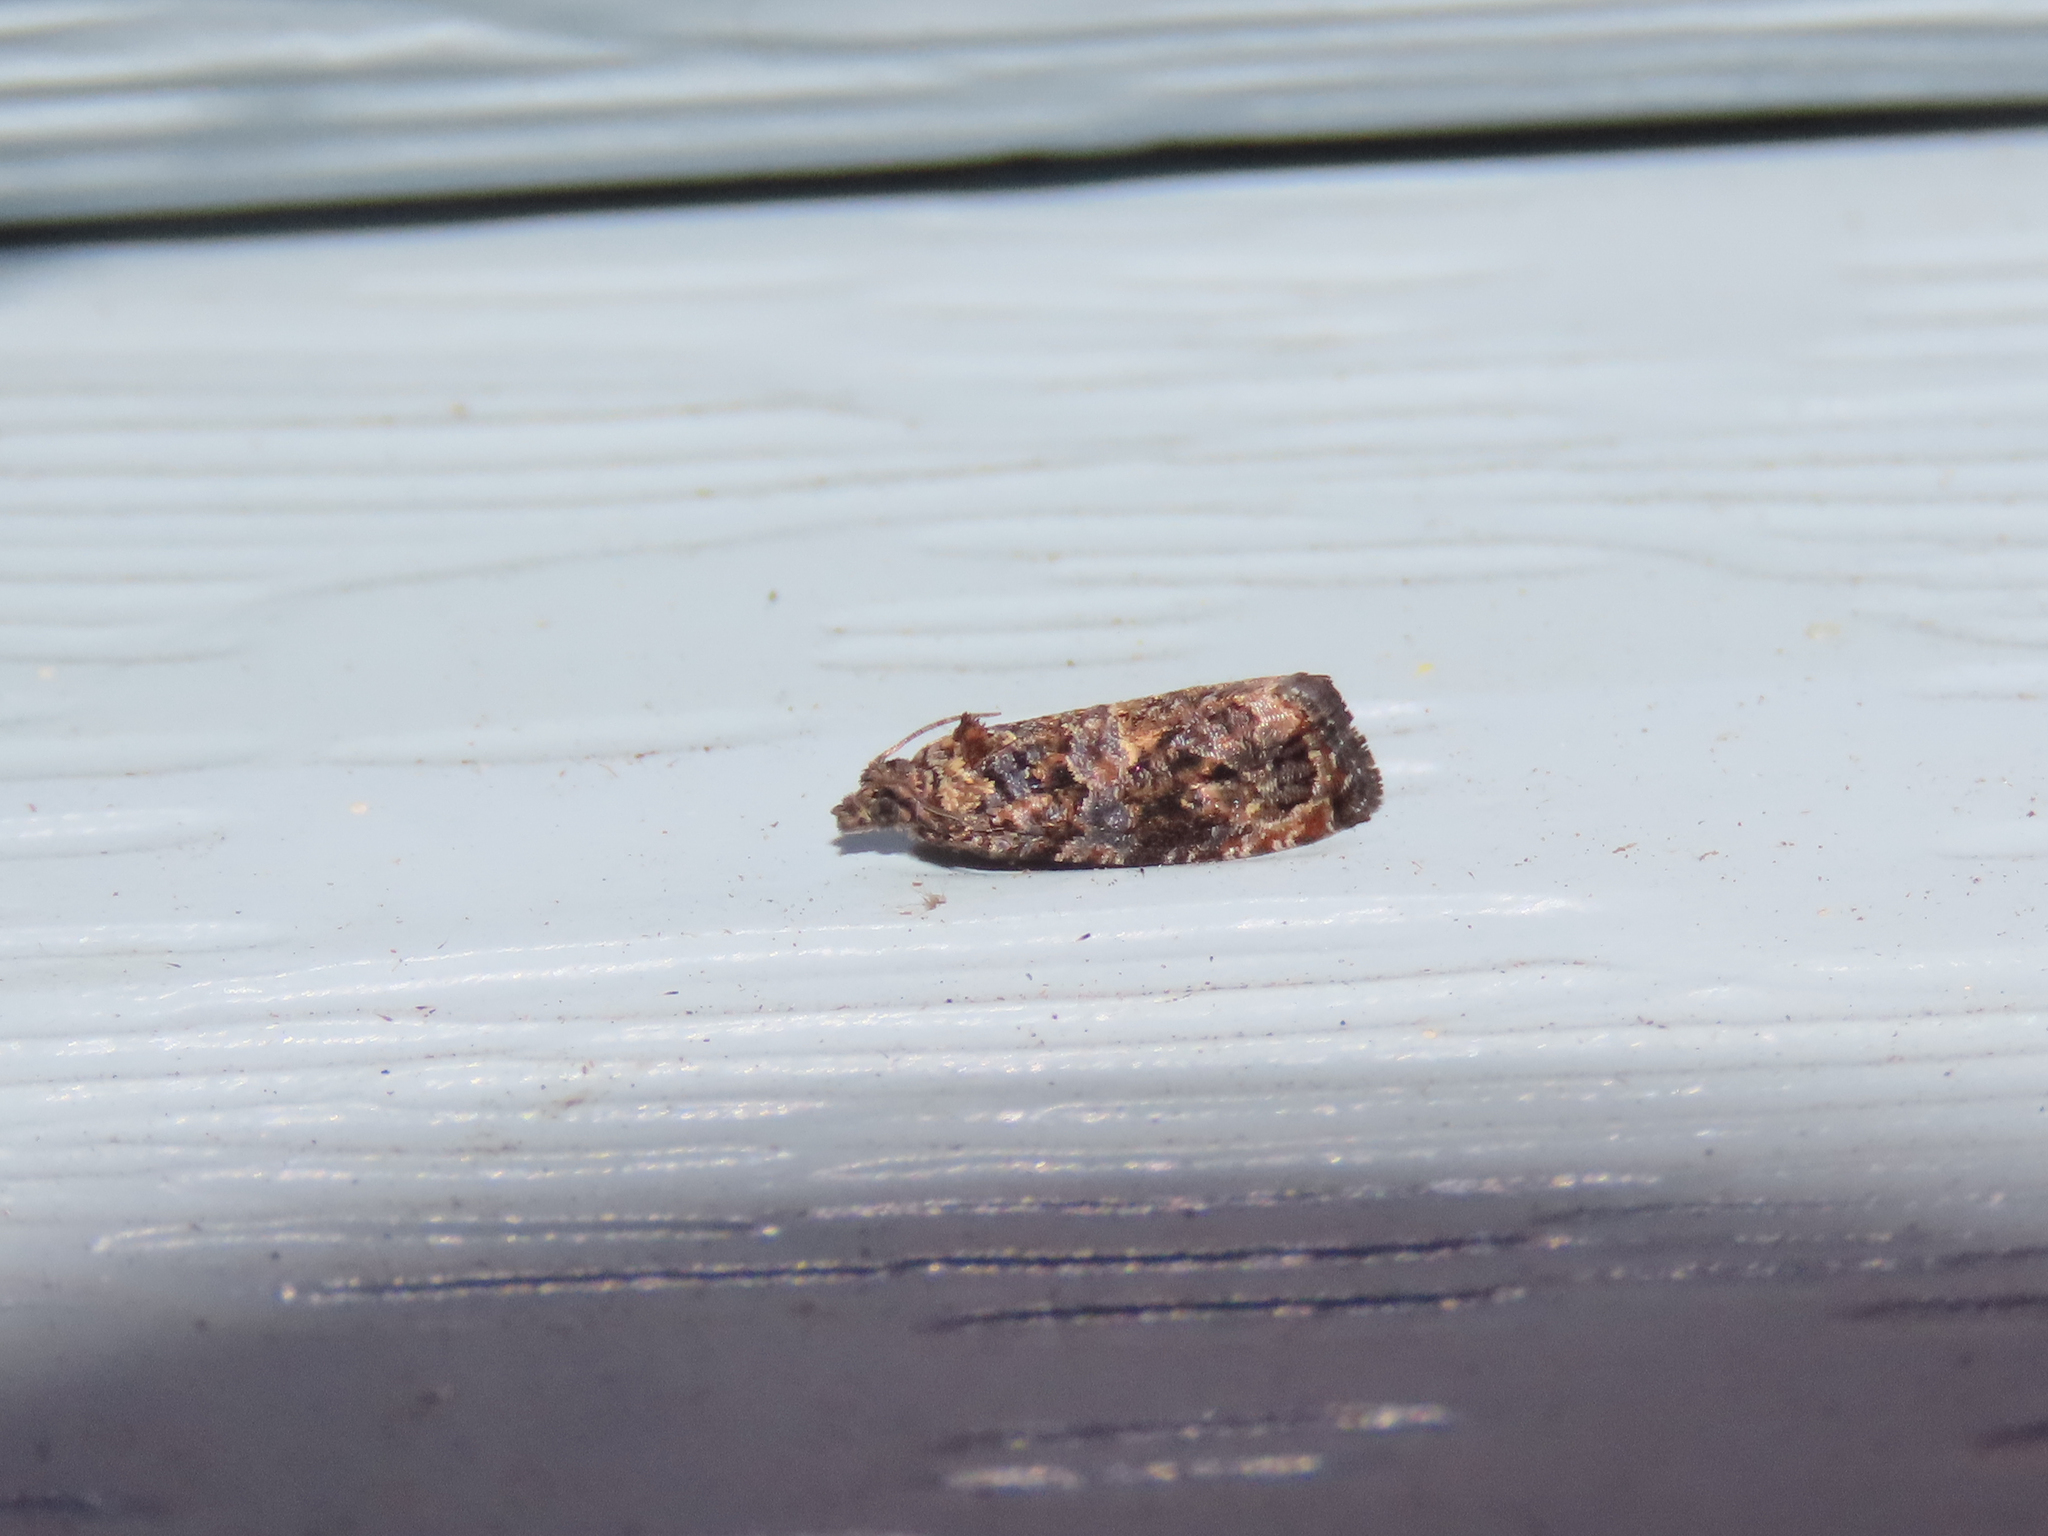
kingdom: Animalia
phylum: Arthropoda
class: Insecta
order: Lepidoptera
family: Tortricidae
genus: Endothenia
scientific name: Endothenia hebesana
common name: Verbena bud moth
